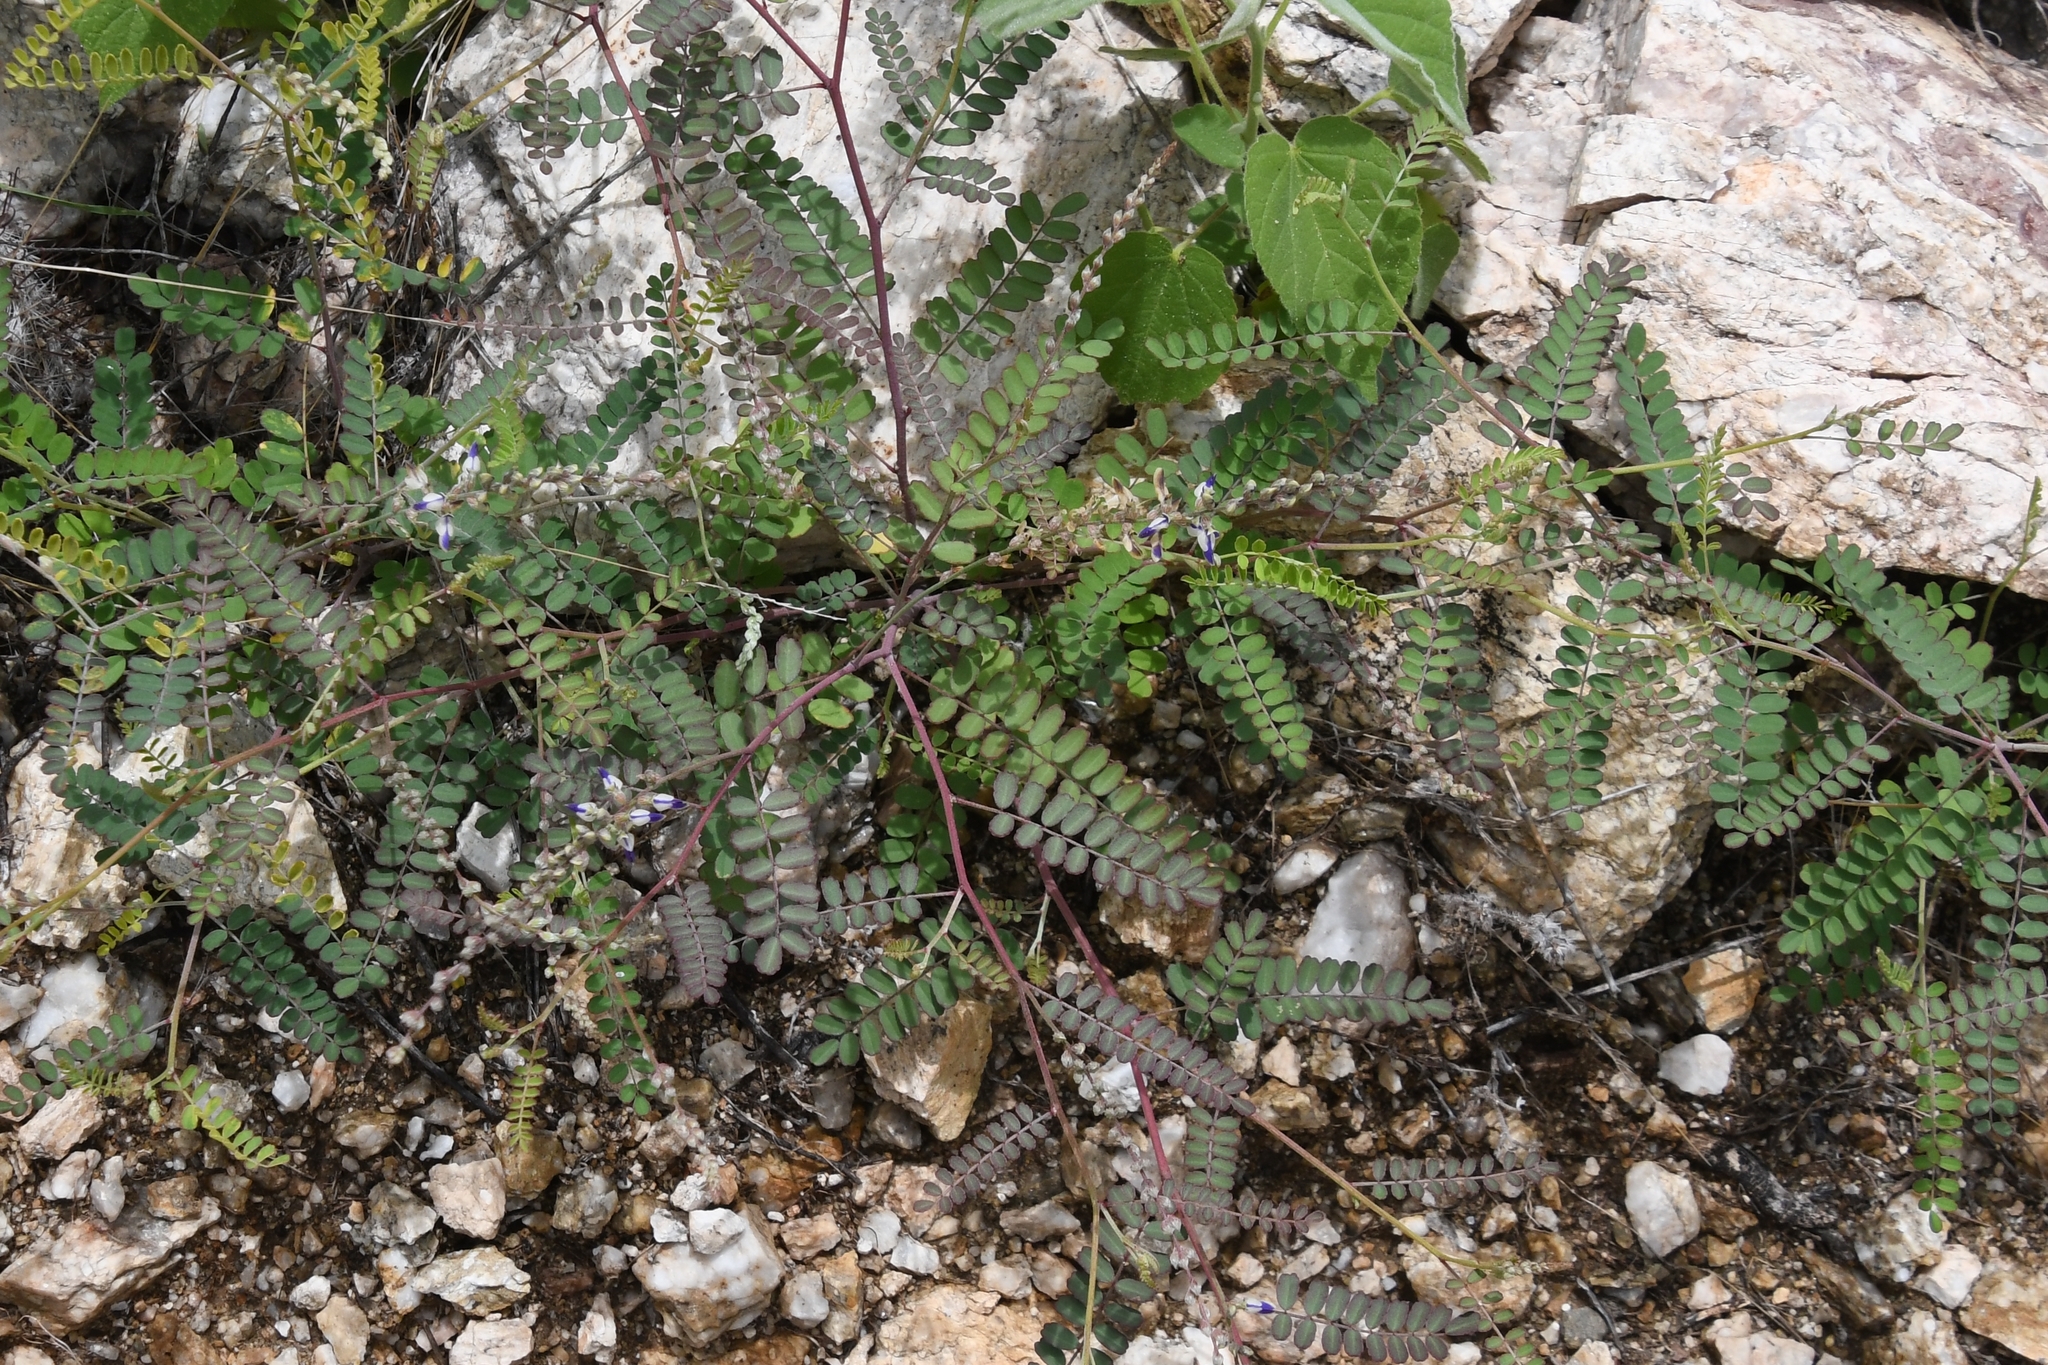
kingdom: Plantae
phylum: Tracheophyta
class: Magnoliopsida
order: Fabales
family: Fabaceae
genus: Marina
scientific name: Marina parryi
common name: Parry's marina
